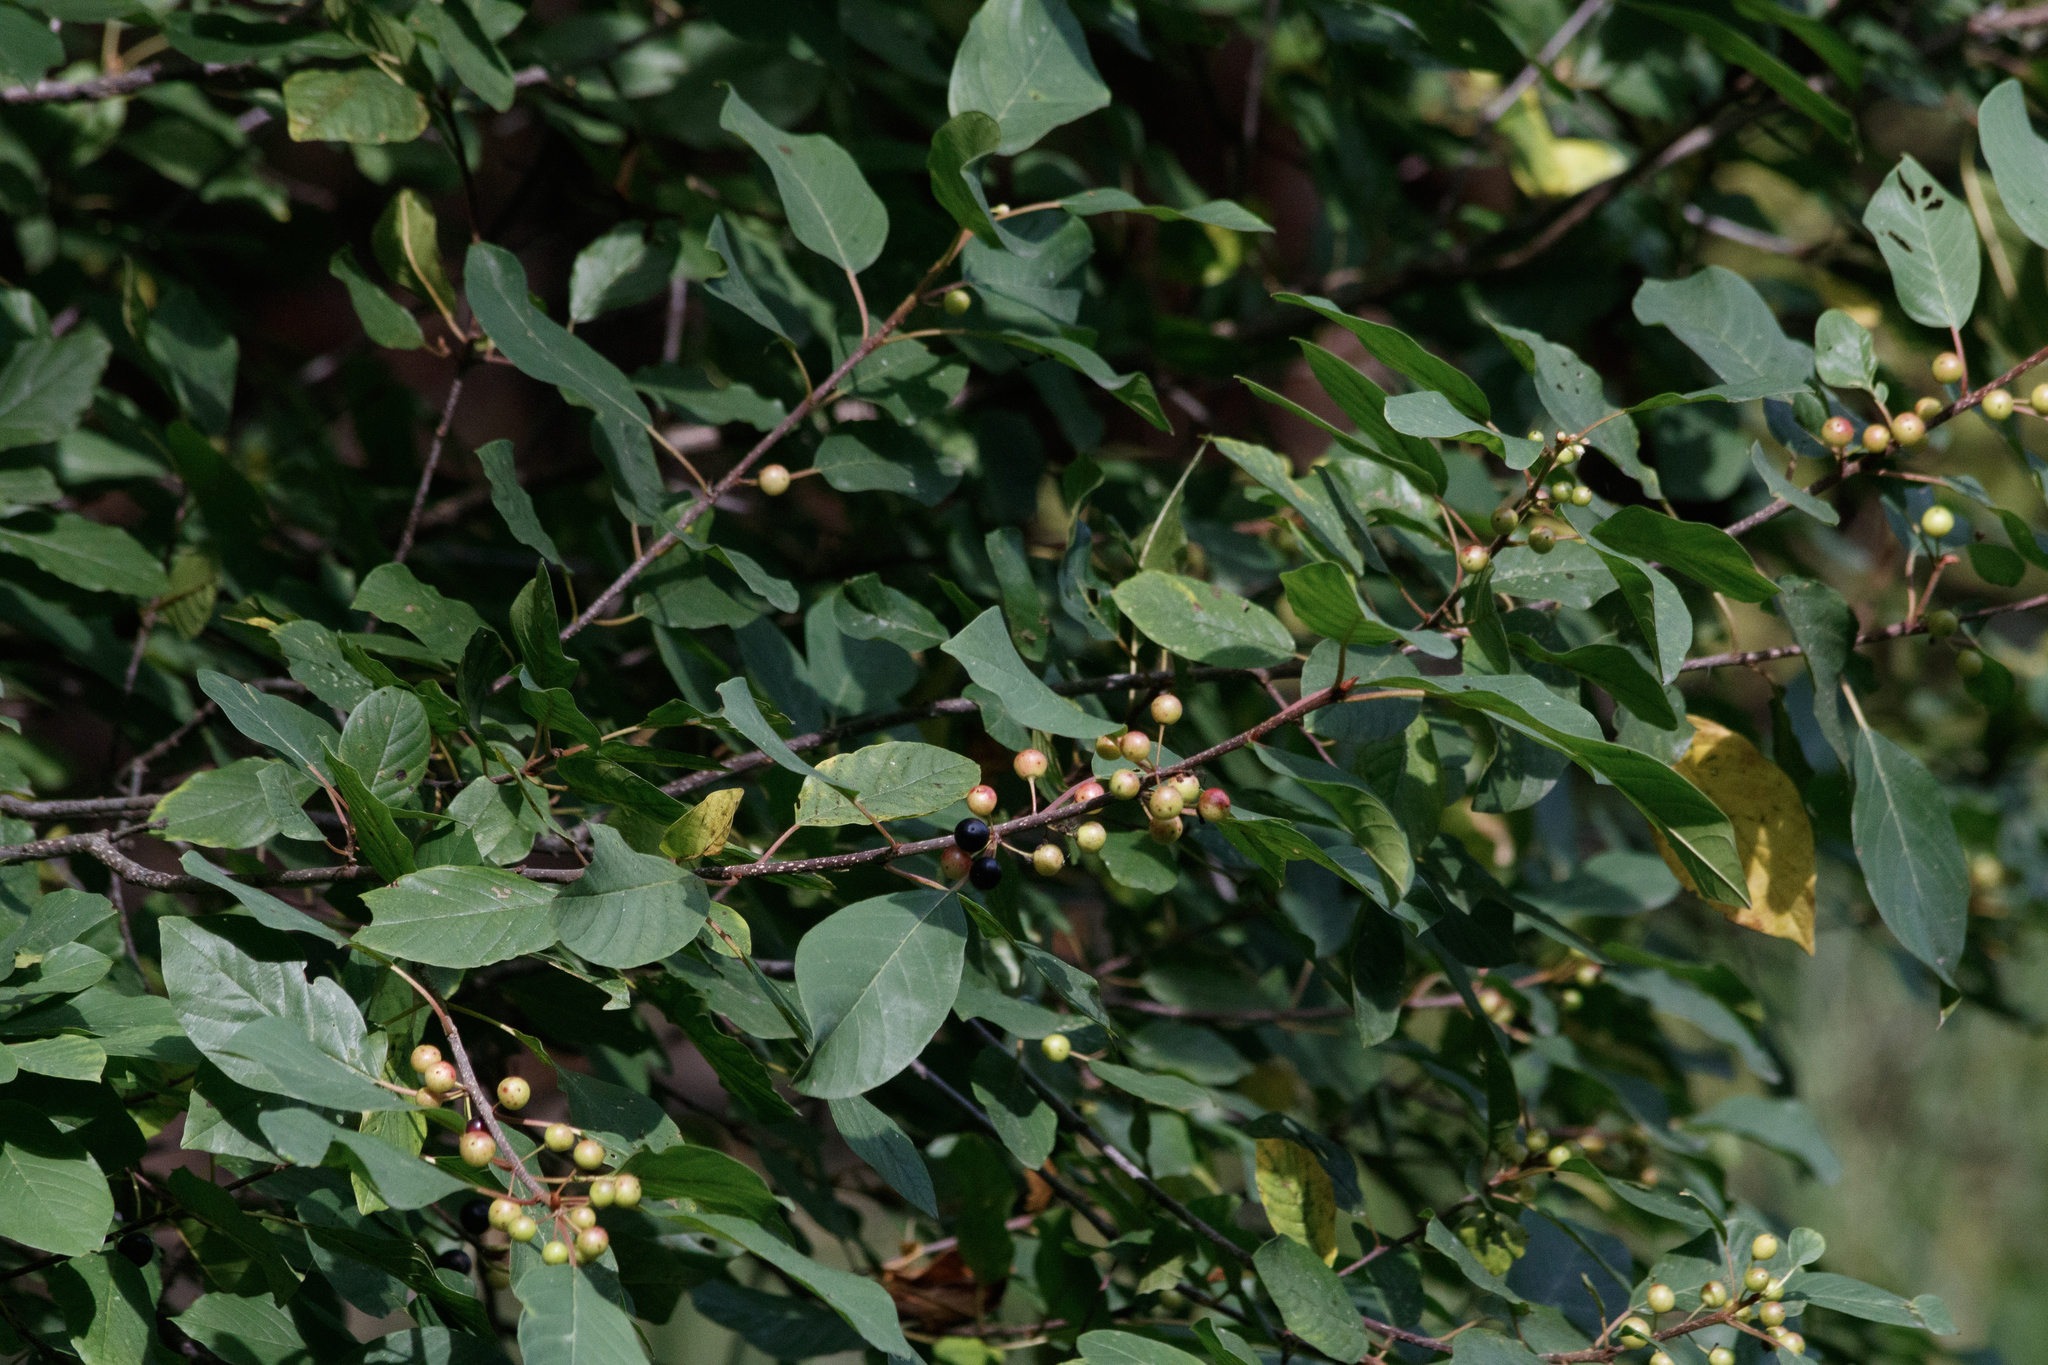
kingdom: Plantae
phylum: Tracheophyta
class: Magnoliopsida
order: Rosales
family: Rhamnaceae
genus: Frangula
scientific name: Frangula alnus
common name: Alder buckthorn
